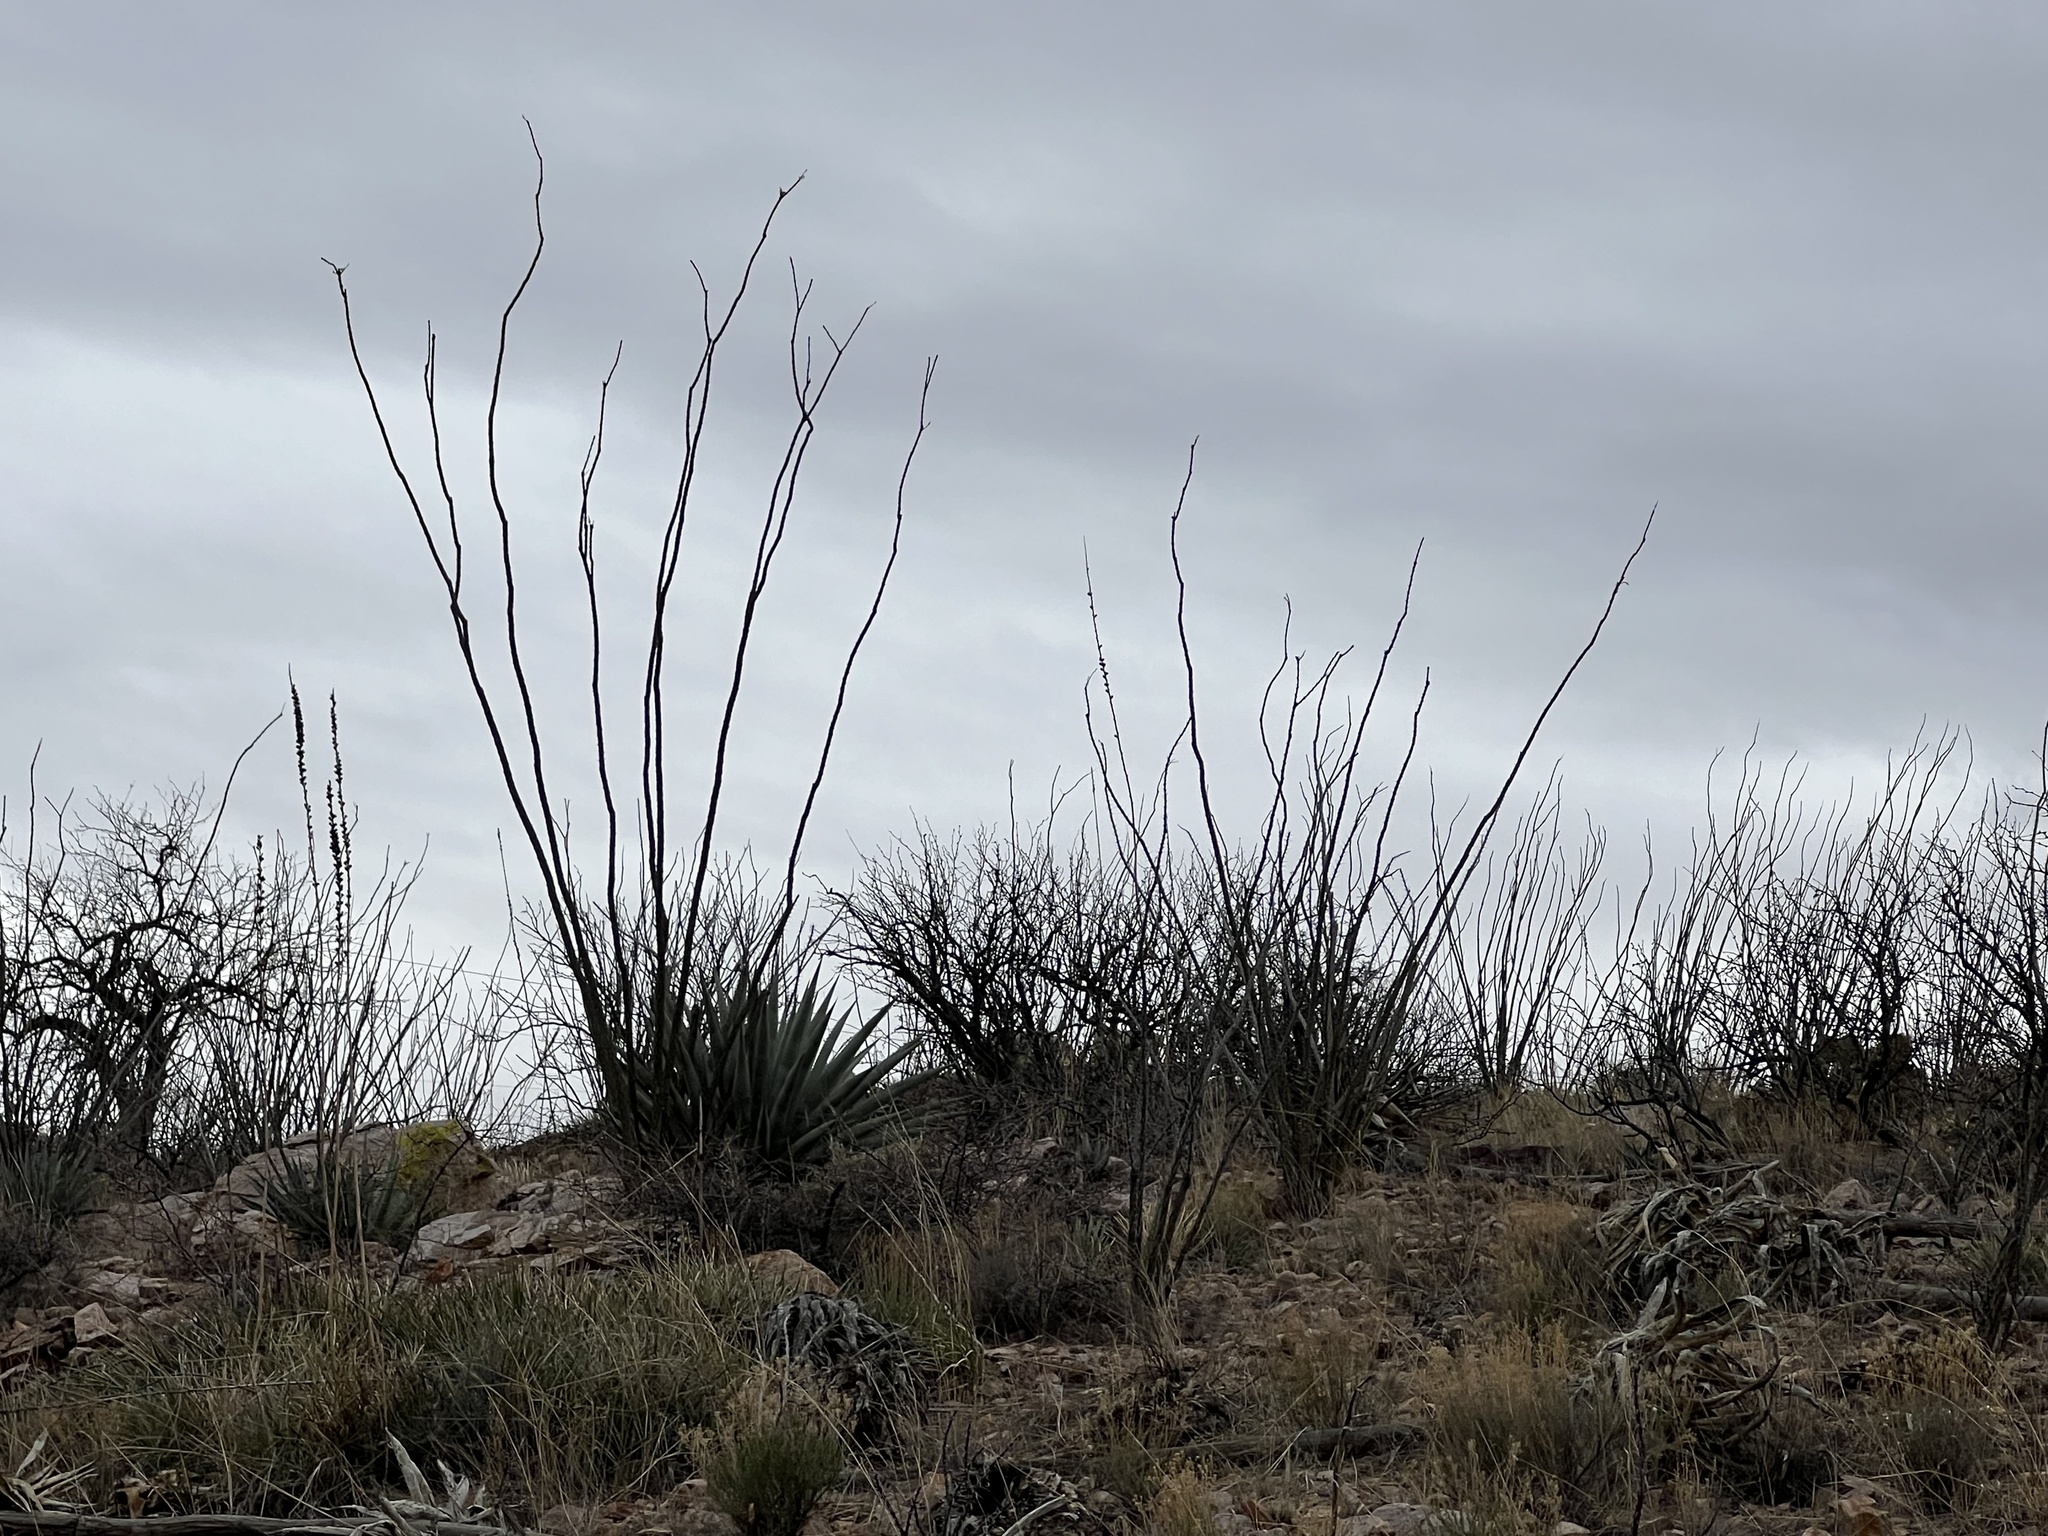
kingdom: Plantae
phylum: Tracheophyta
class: Magnoliopsida
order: Ericales
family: Fouquieriaceae
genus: Fouquieria
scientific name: Fouquieria splendens
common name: Vine-cactus
